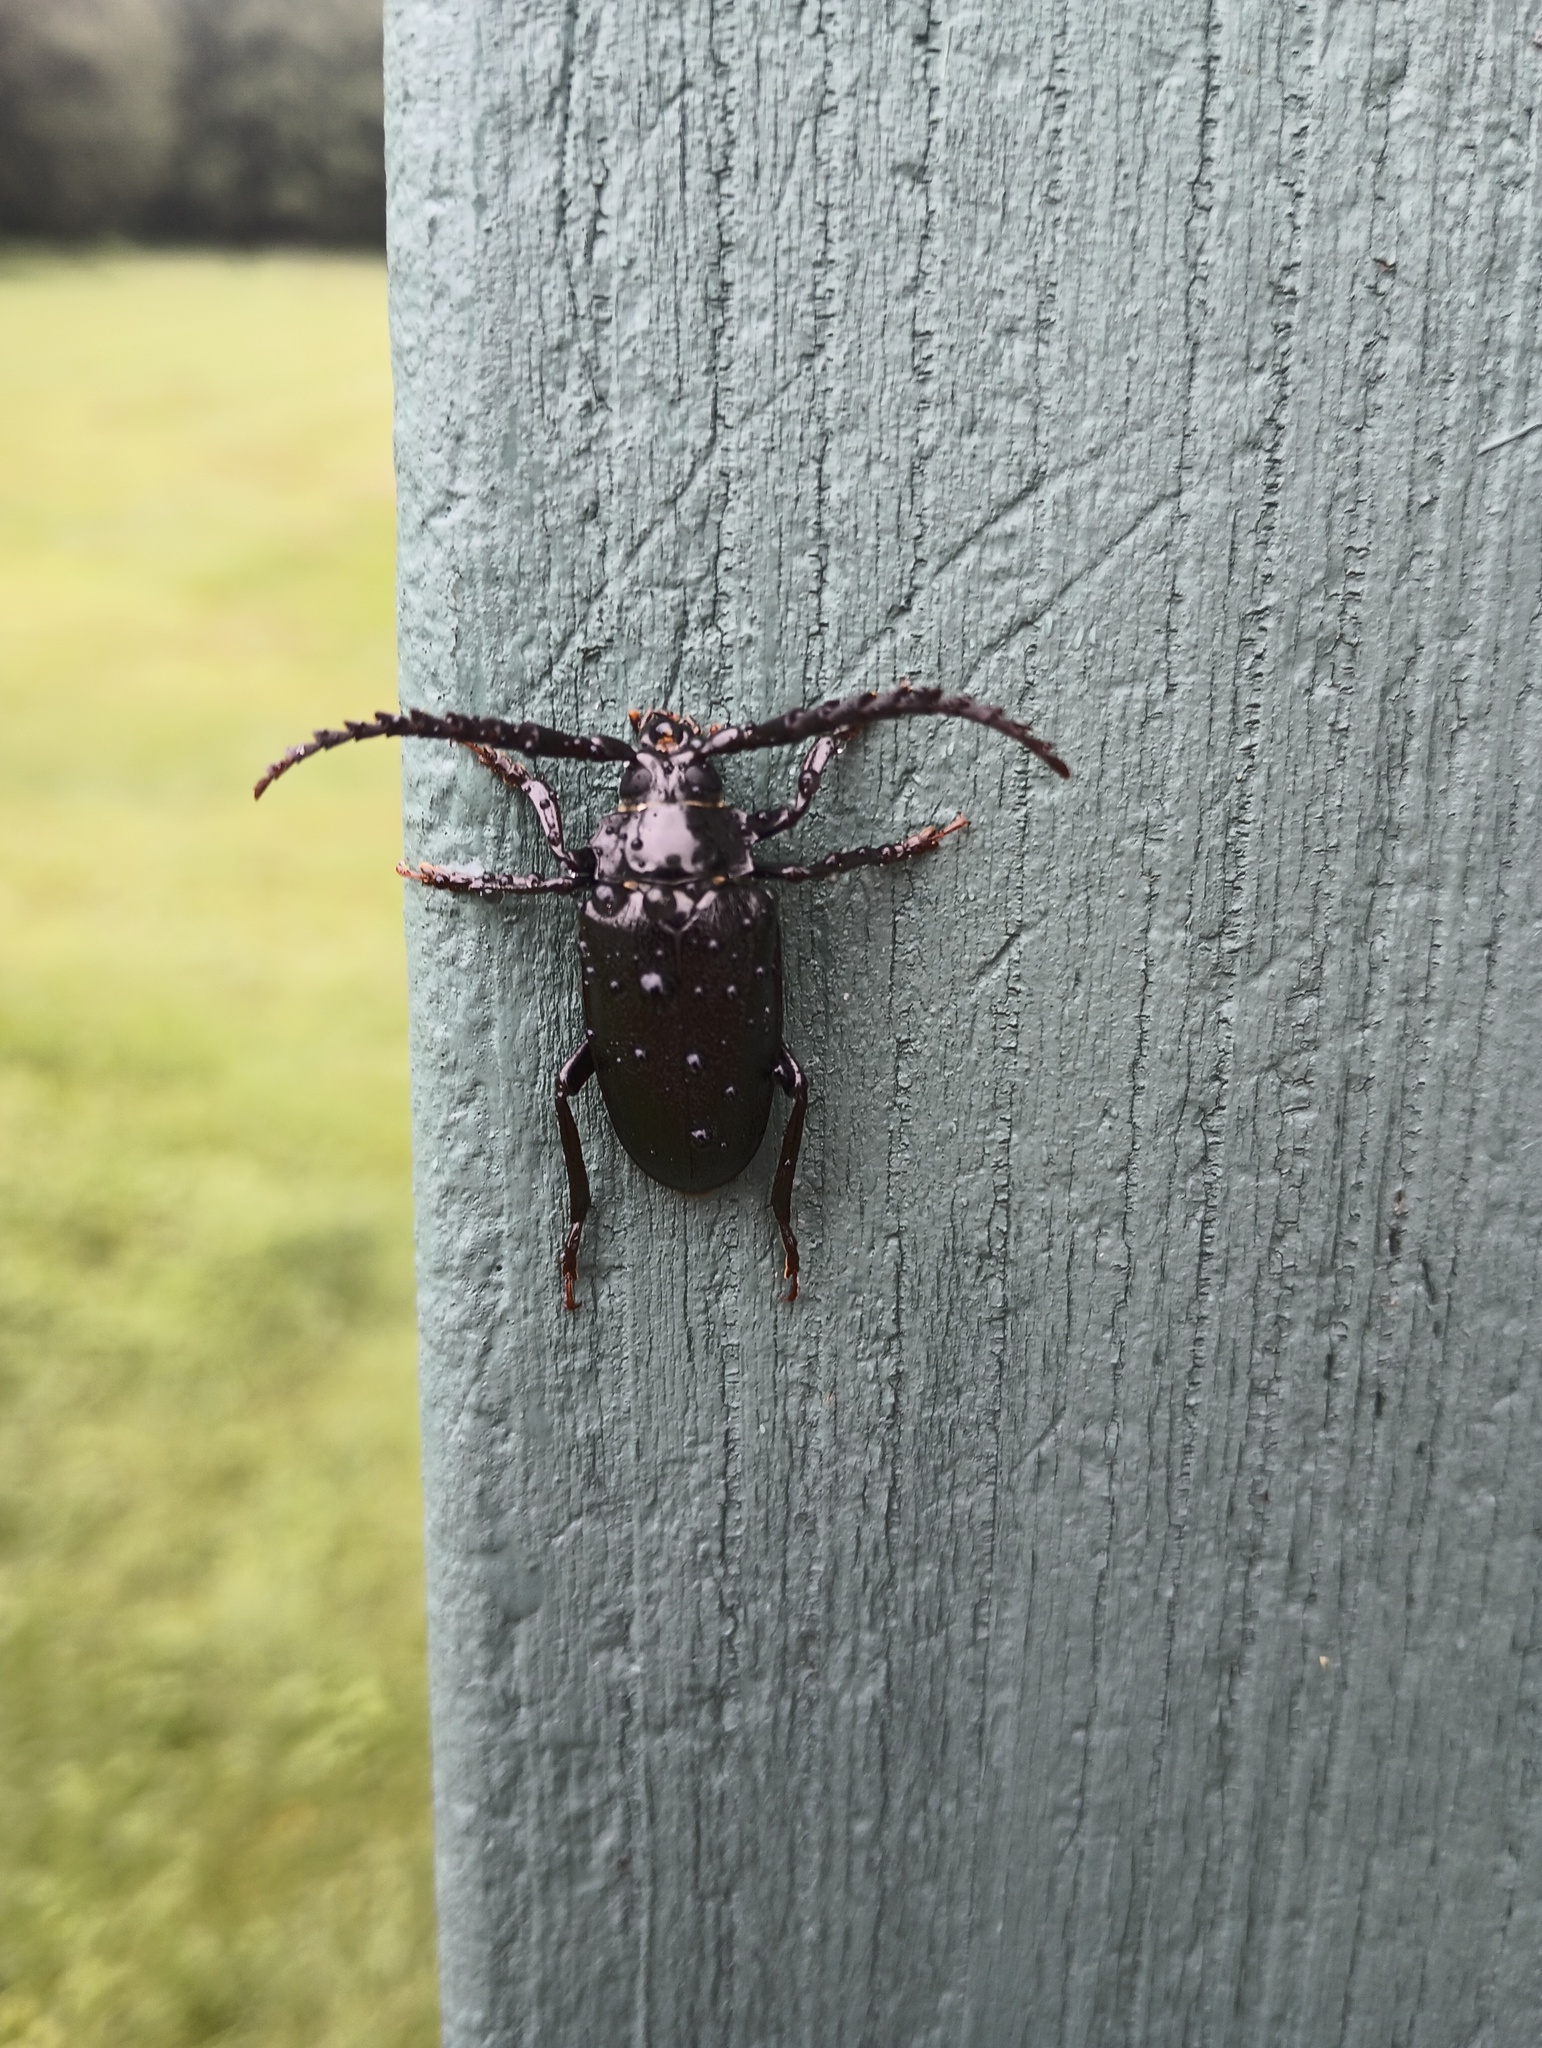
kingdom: Animalia
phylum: Arthropoda
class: Insecta
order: Coleoptera
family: Cerambycidae
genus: Prionus
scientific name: Prionus laticollis
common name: Broad necked prionus
